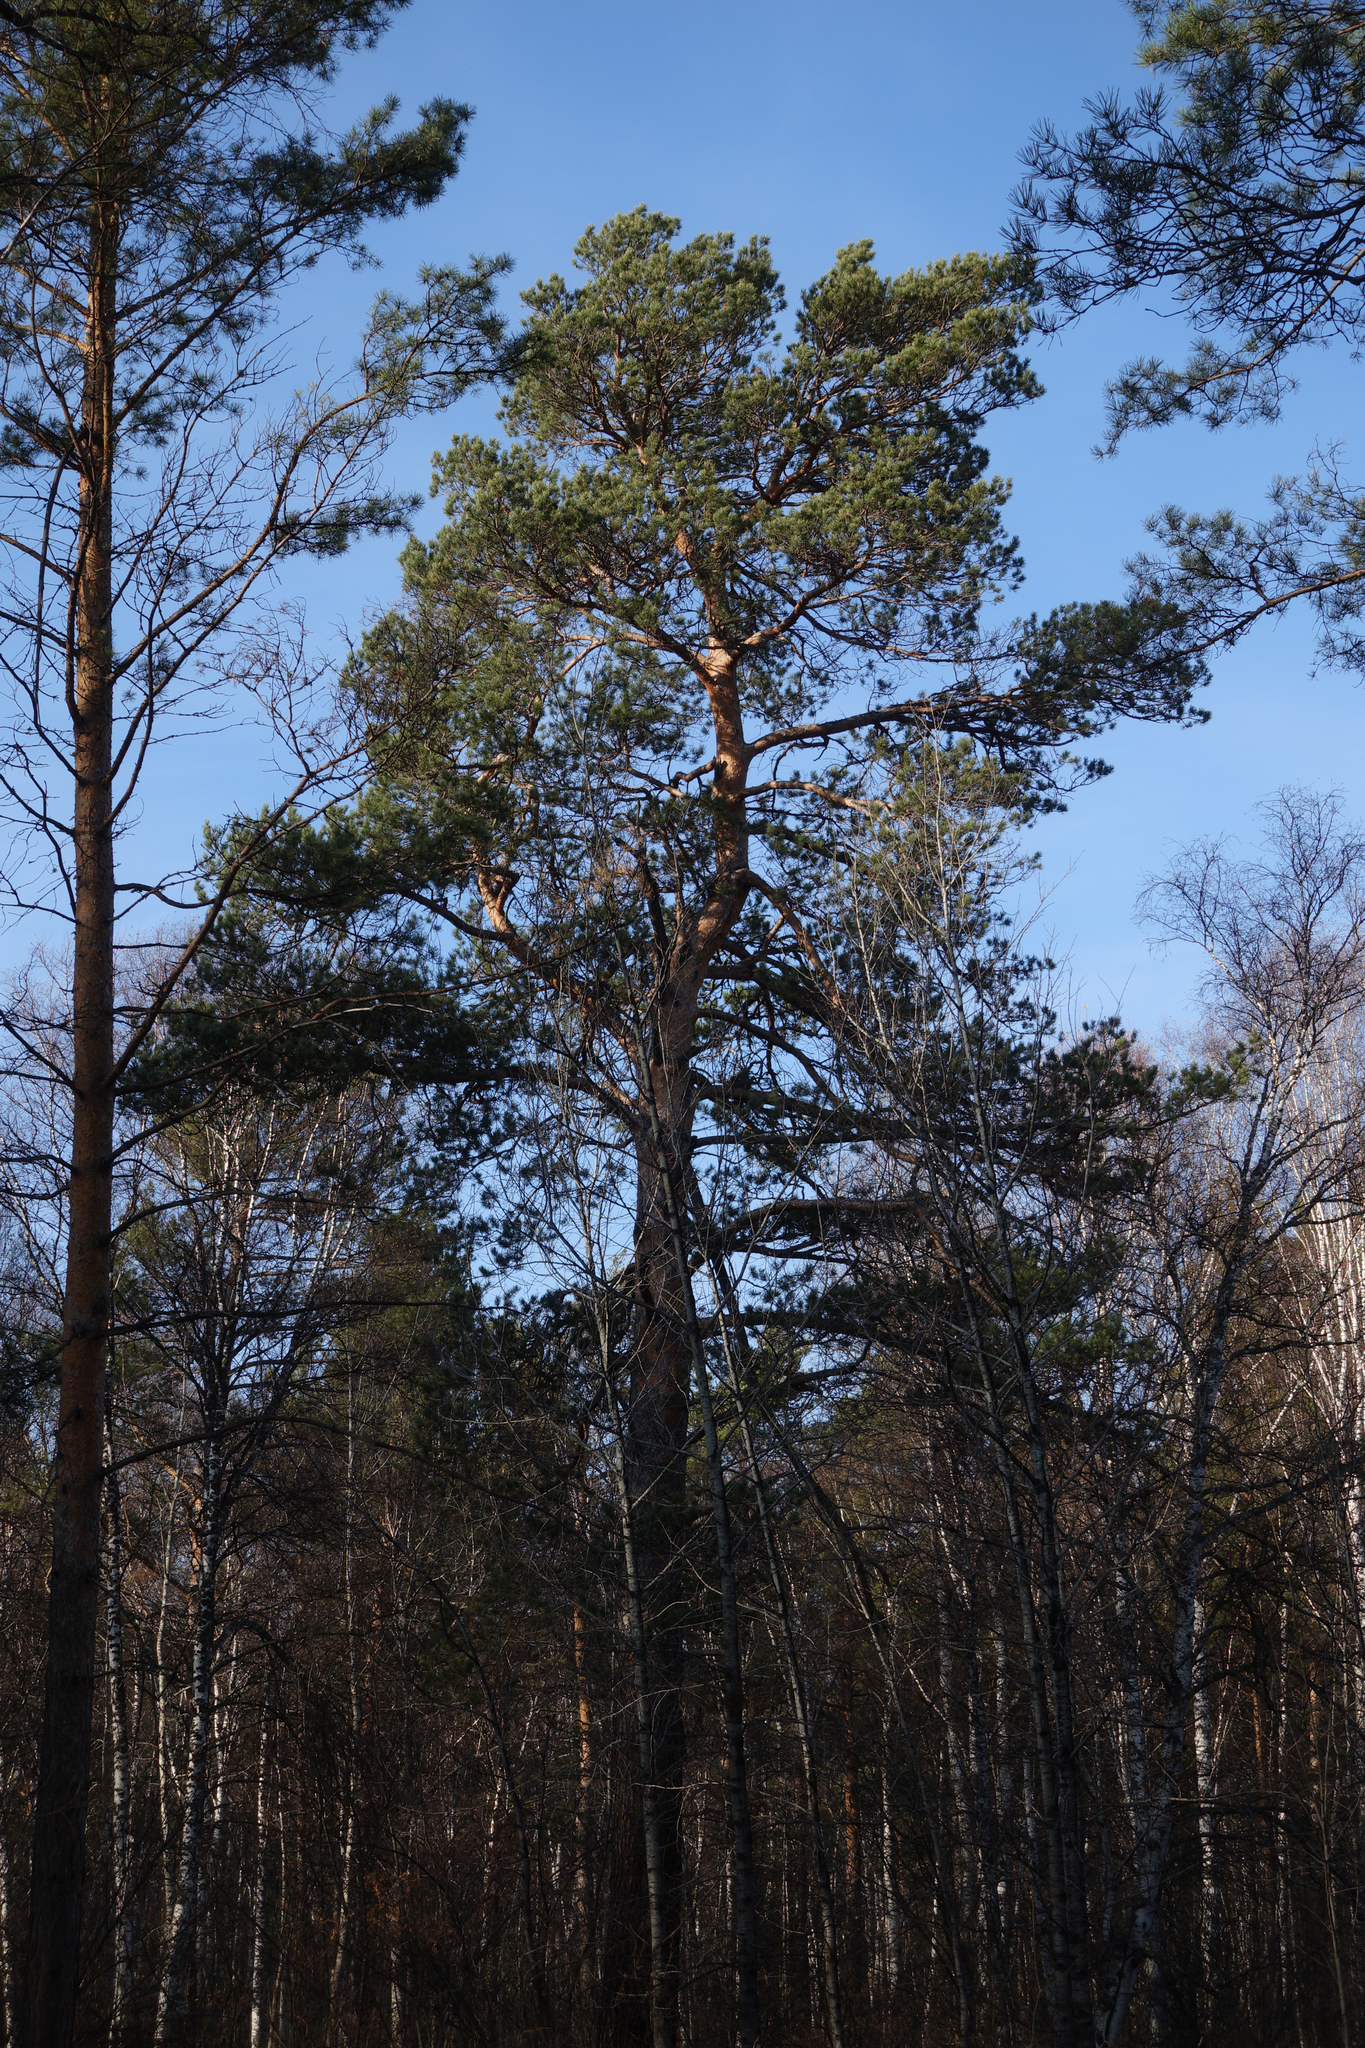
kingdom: Plantae
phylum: Tracheophyta
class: Pinopsida
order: Pinales
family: Pinaceae
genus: Pinus
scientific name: Pinus sylvestris
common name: Scots pine
